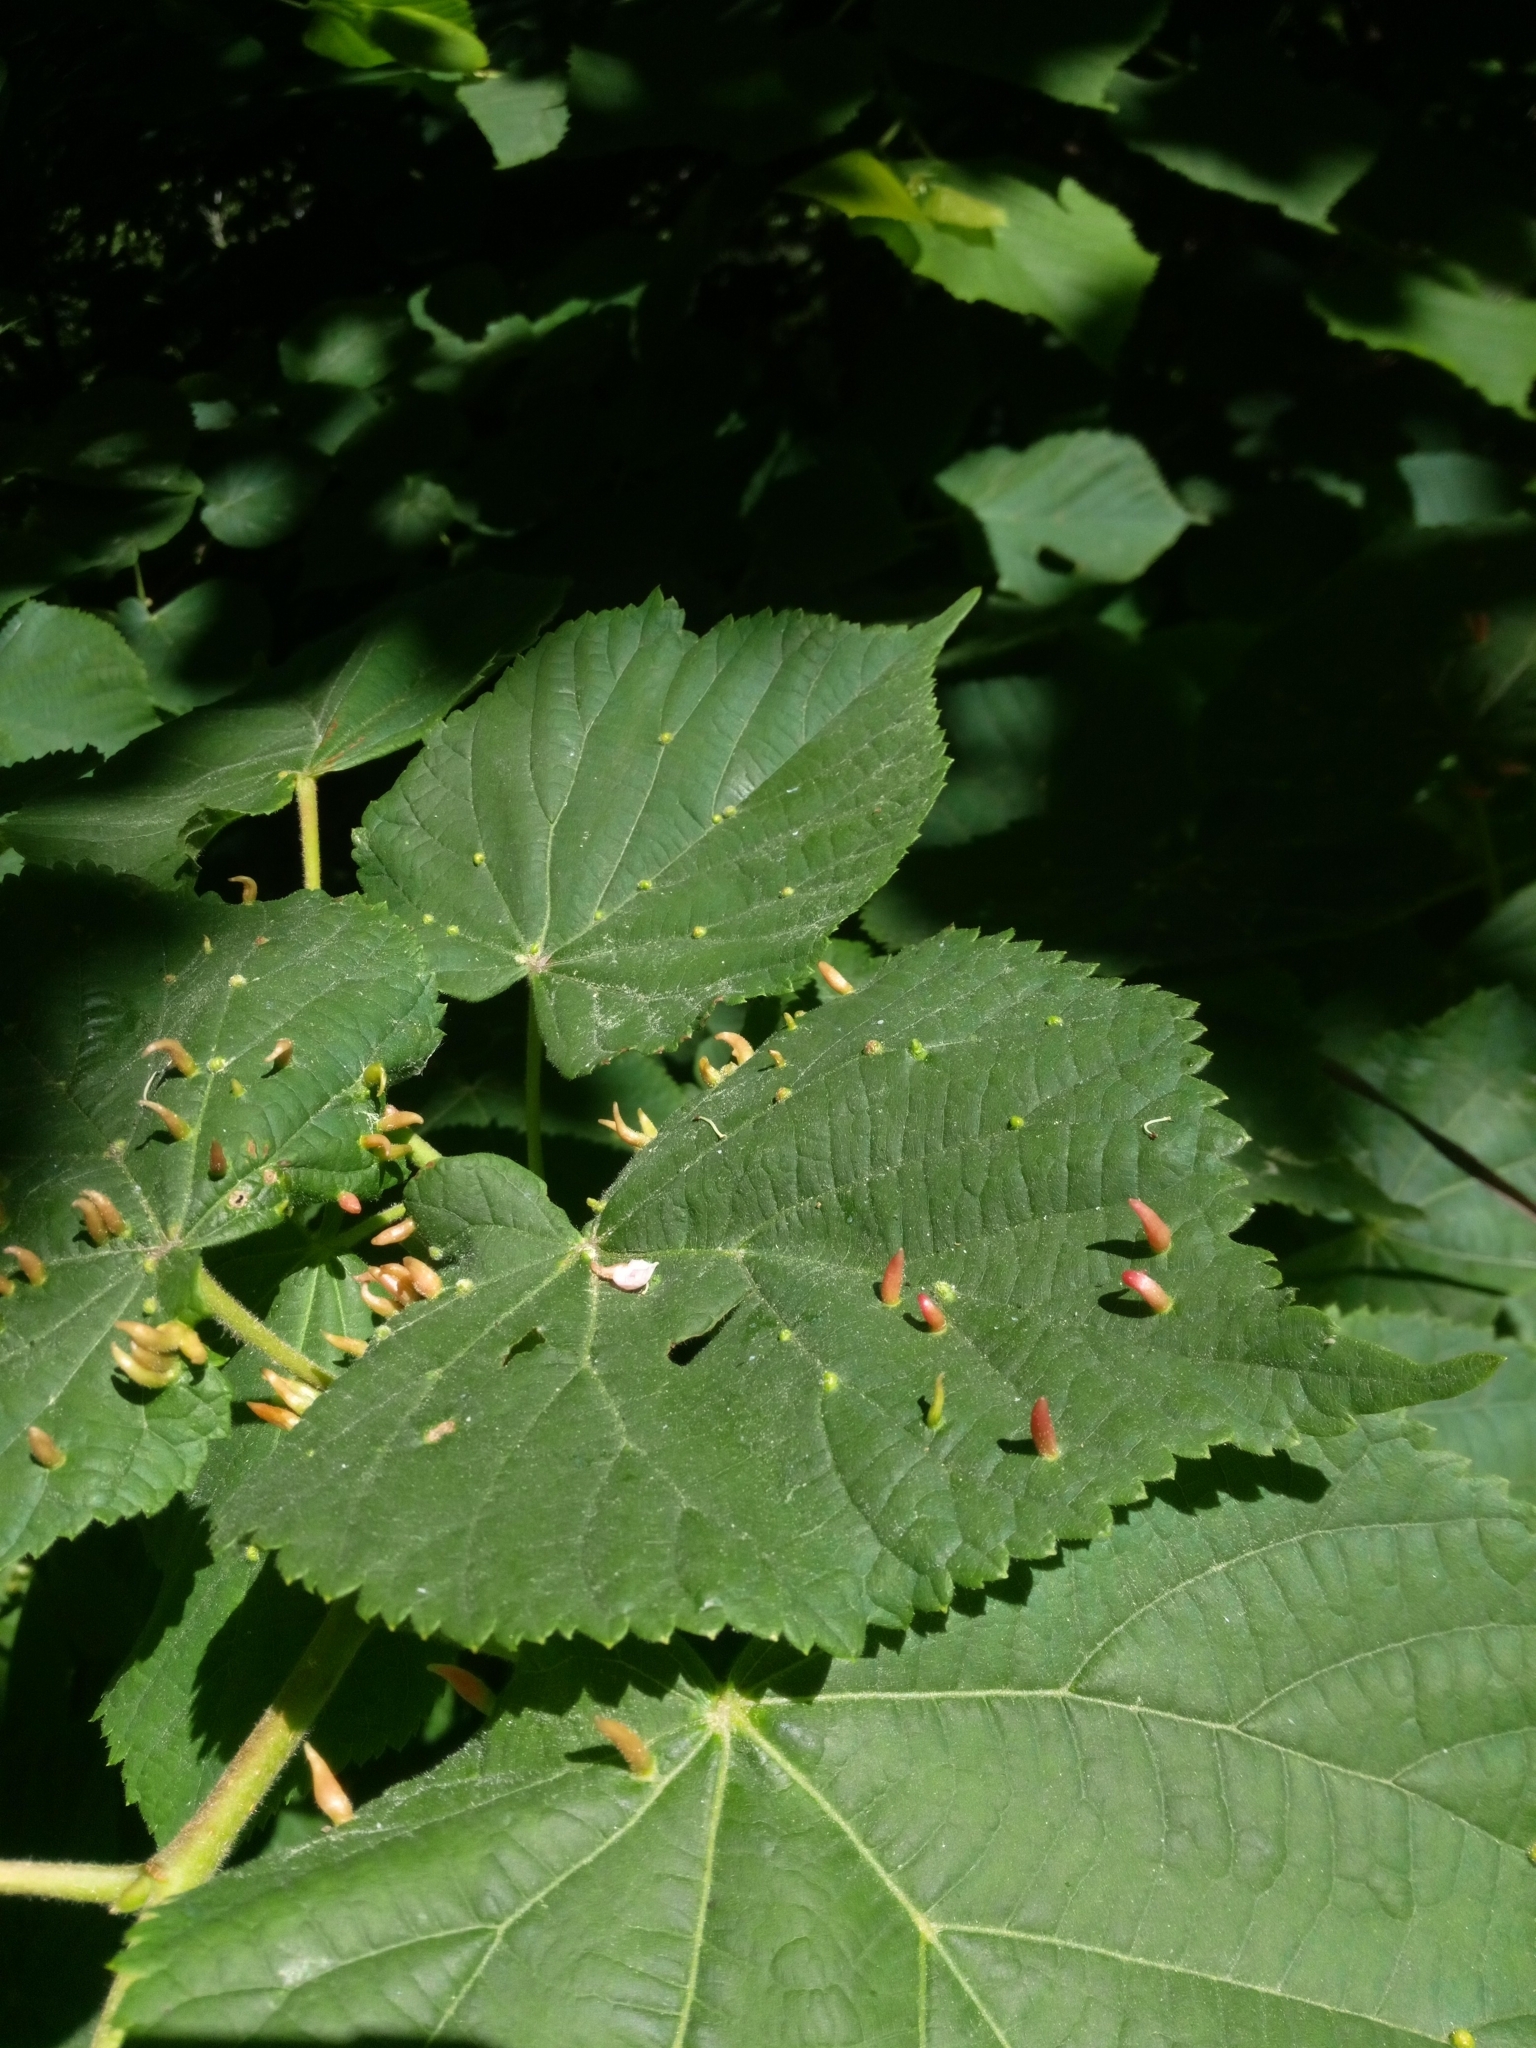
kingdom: Animalia
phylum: Arthropoda
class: Arachnida
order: Trombidiformes
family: Eriophyidae
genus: Eriophyes
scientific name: Eriophyes tiliae
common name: Red nail gall mite
